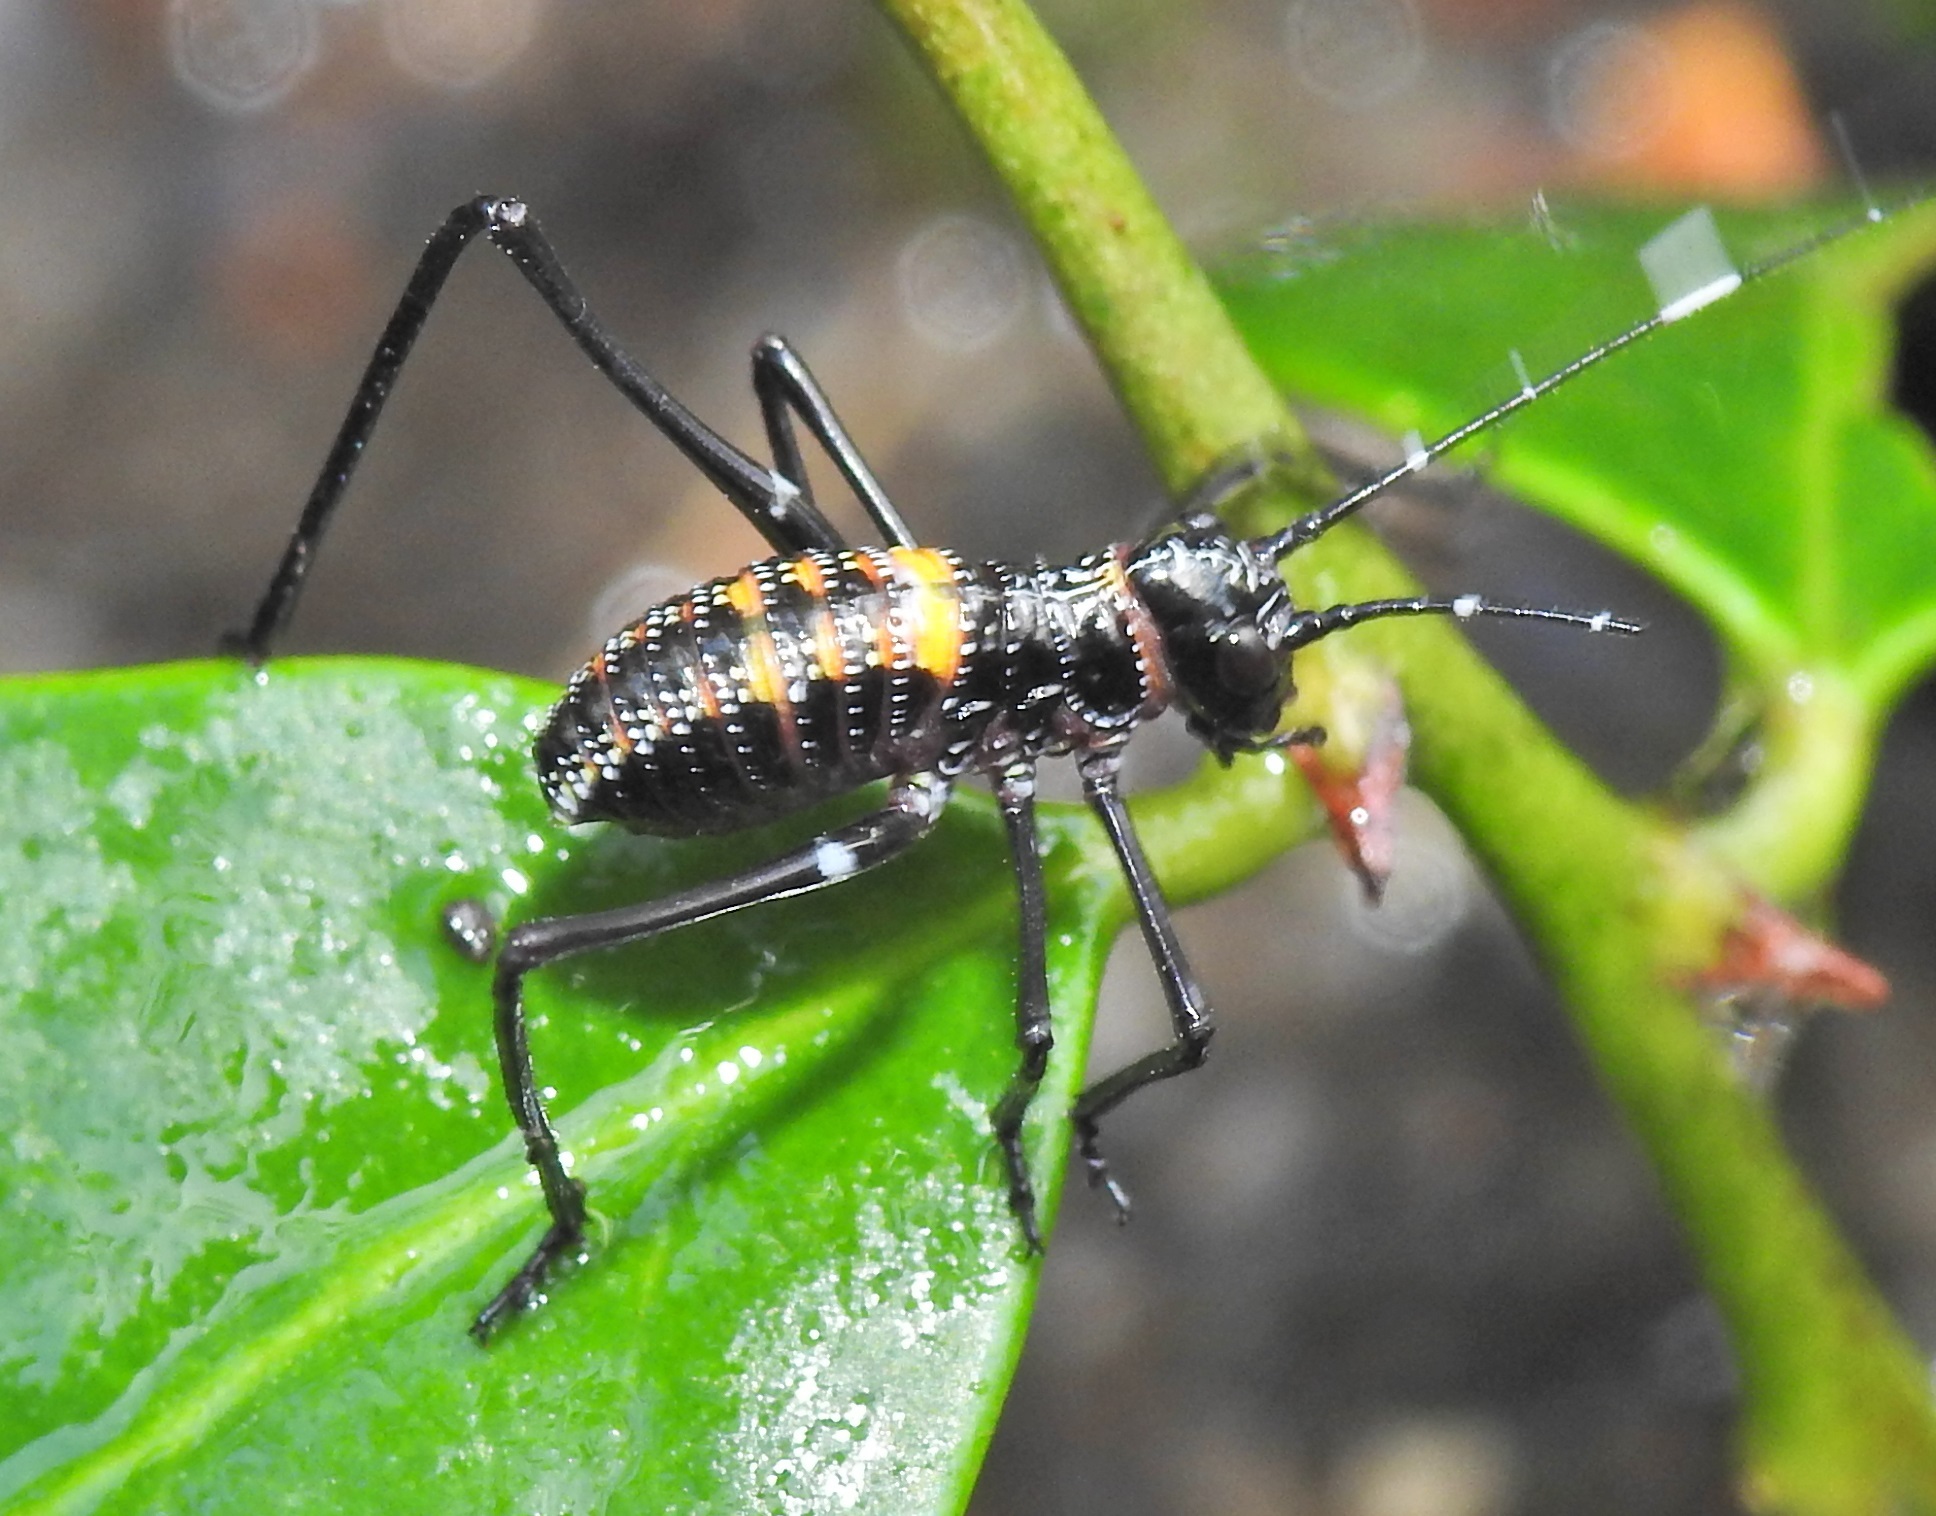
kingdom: Animalia
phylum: Arthropoda
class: Insecta
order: Orthoptera
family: Tettigoniidae
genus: Acripeza
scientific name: Acripeza reticulata
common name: Mountain katydid
